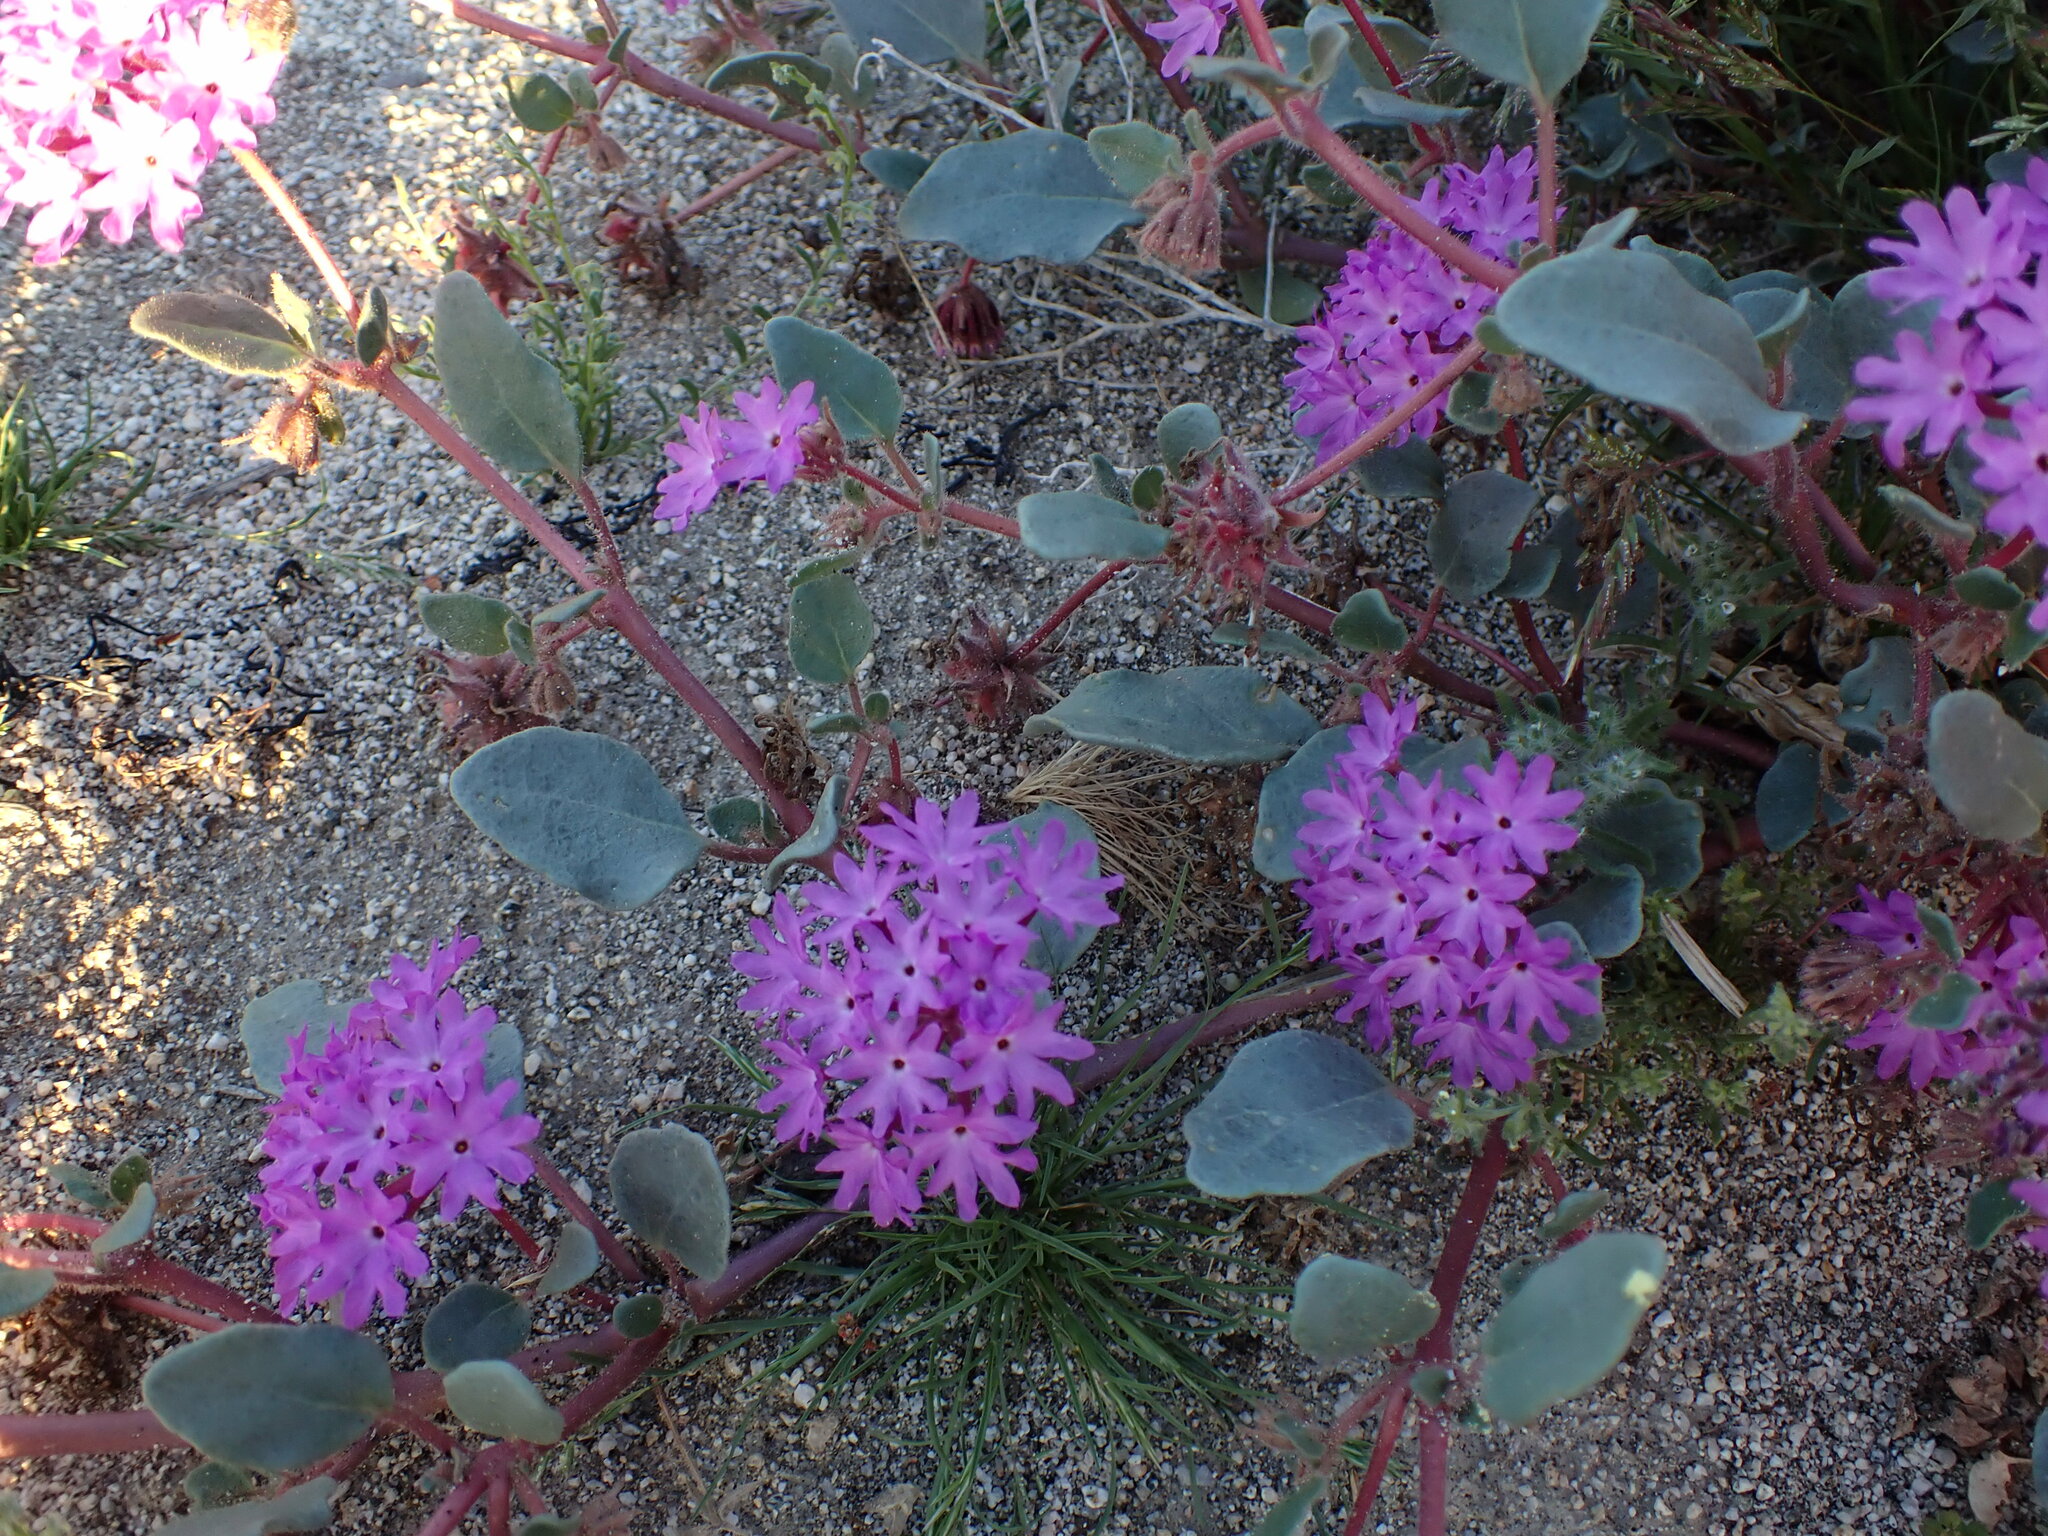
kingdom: Plantae
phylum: Tracheophyta
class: Magnoliopsida
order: Caryophyllales
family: Nyctaginaceae
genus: Abronia
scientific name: Abronia villosa
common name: Desert sand-verbena
